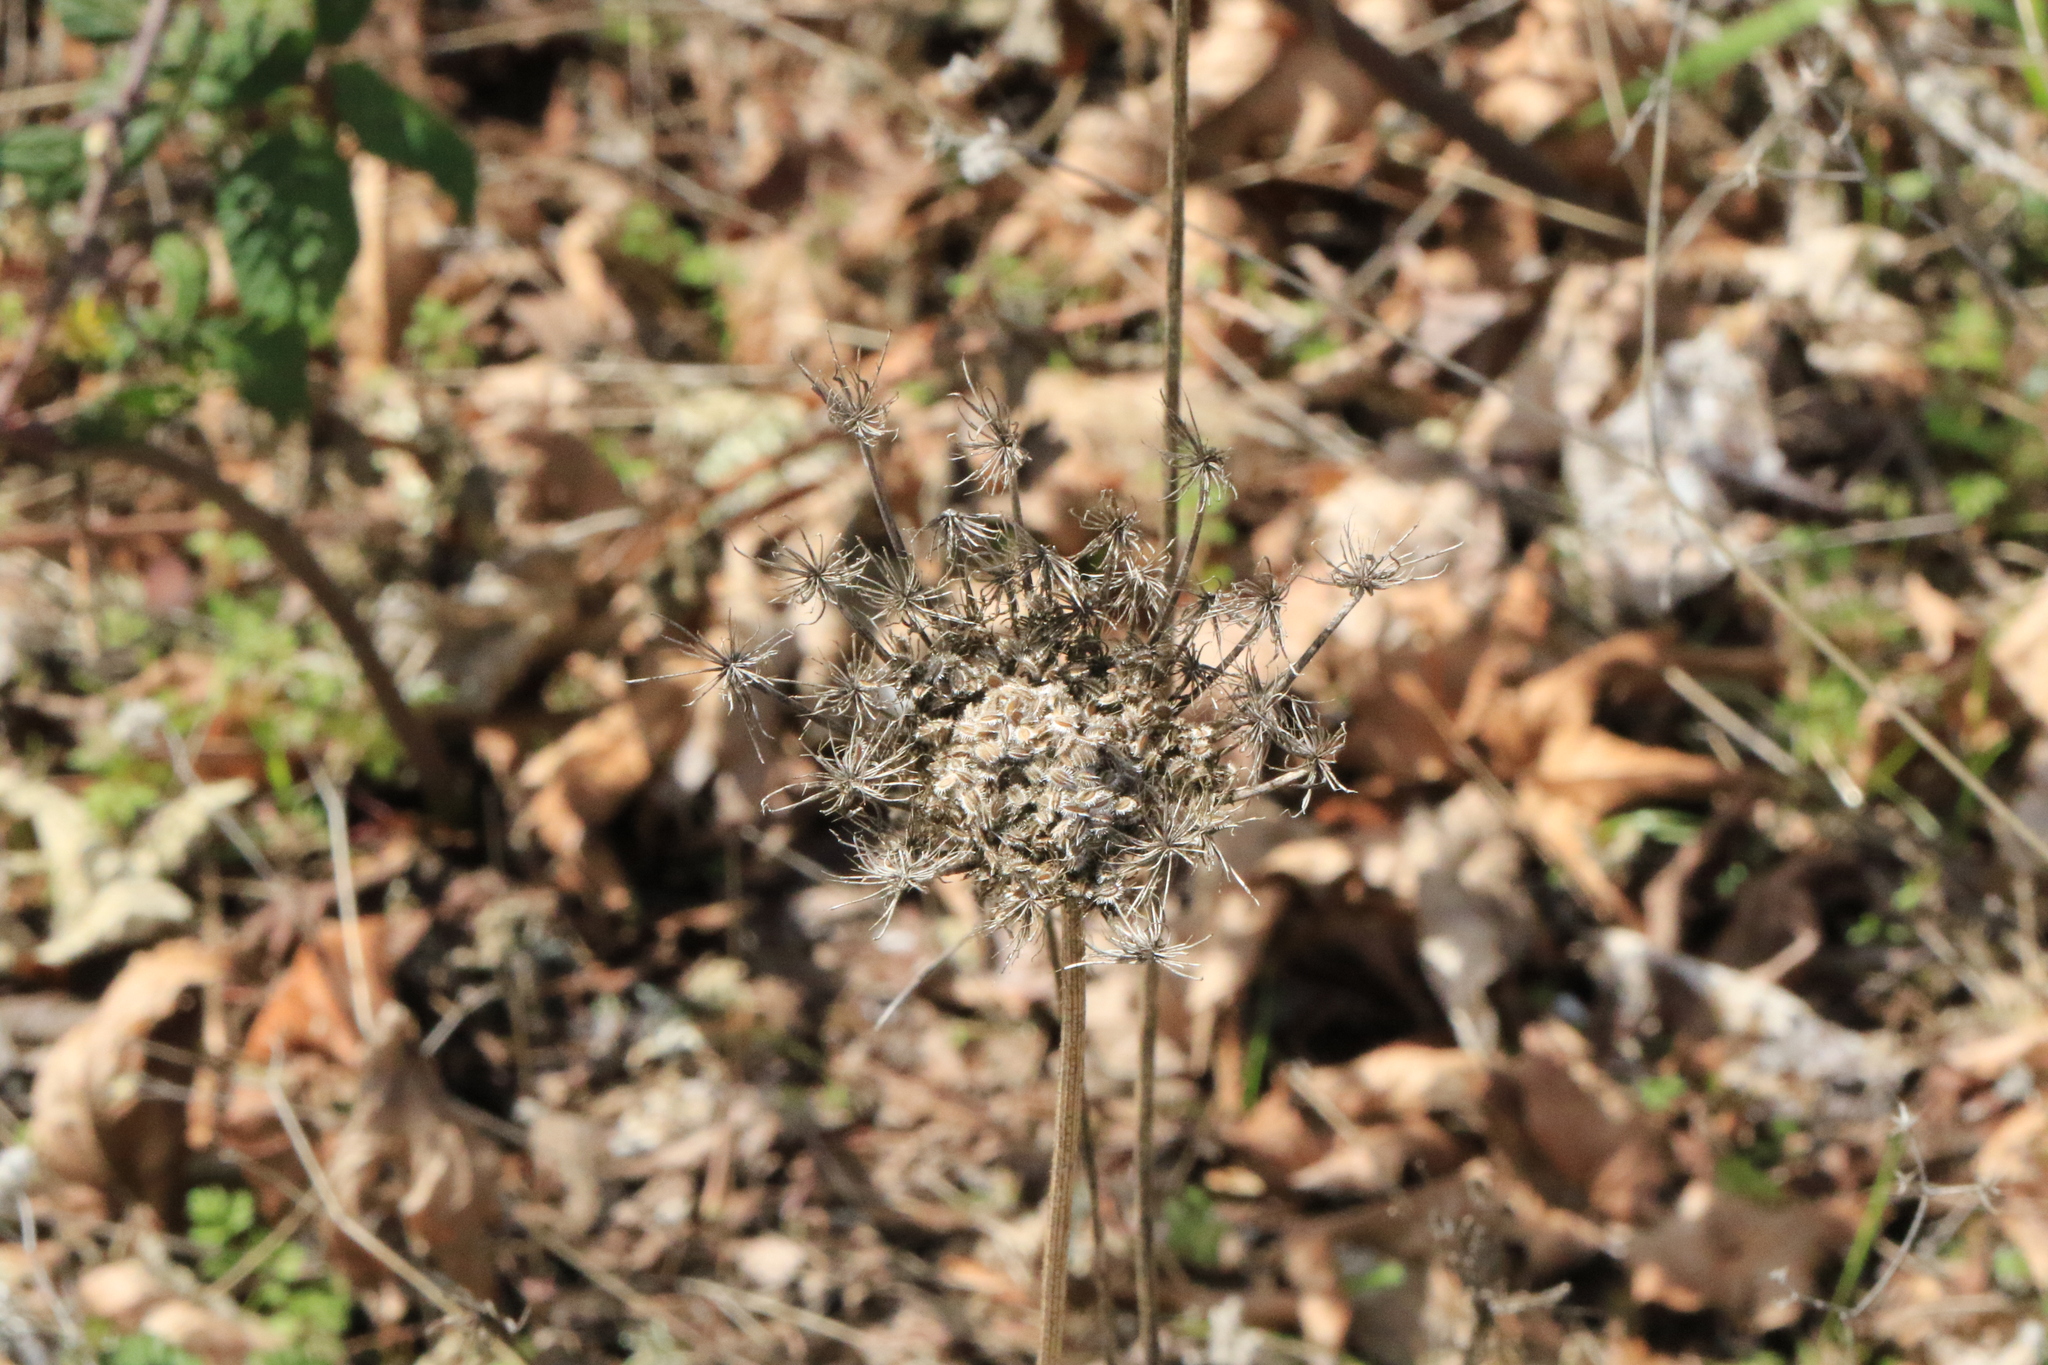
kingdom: Plantae
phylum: Tracheophyta
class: Magnoliopsida
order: Apiales
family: Apiaceae
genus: Daucus
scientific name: Daucus carota
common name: Wild carrot
